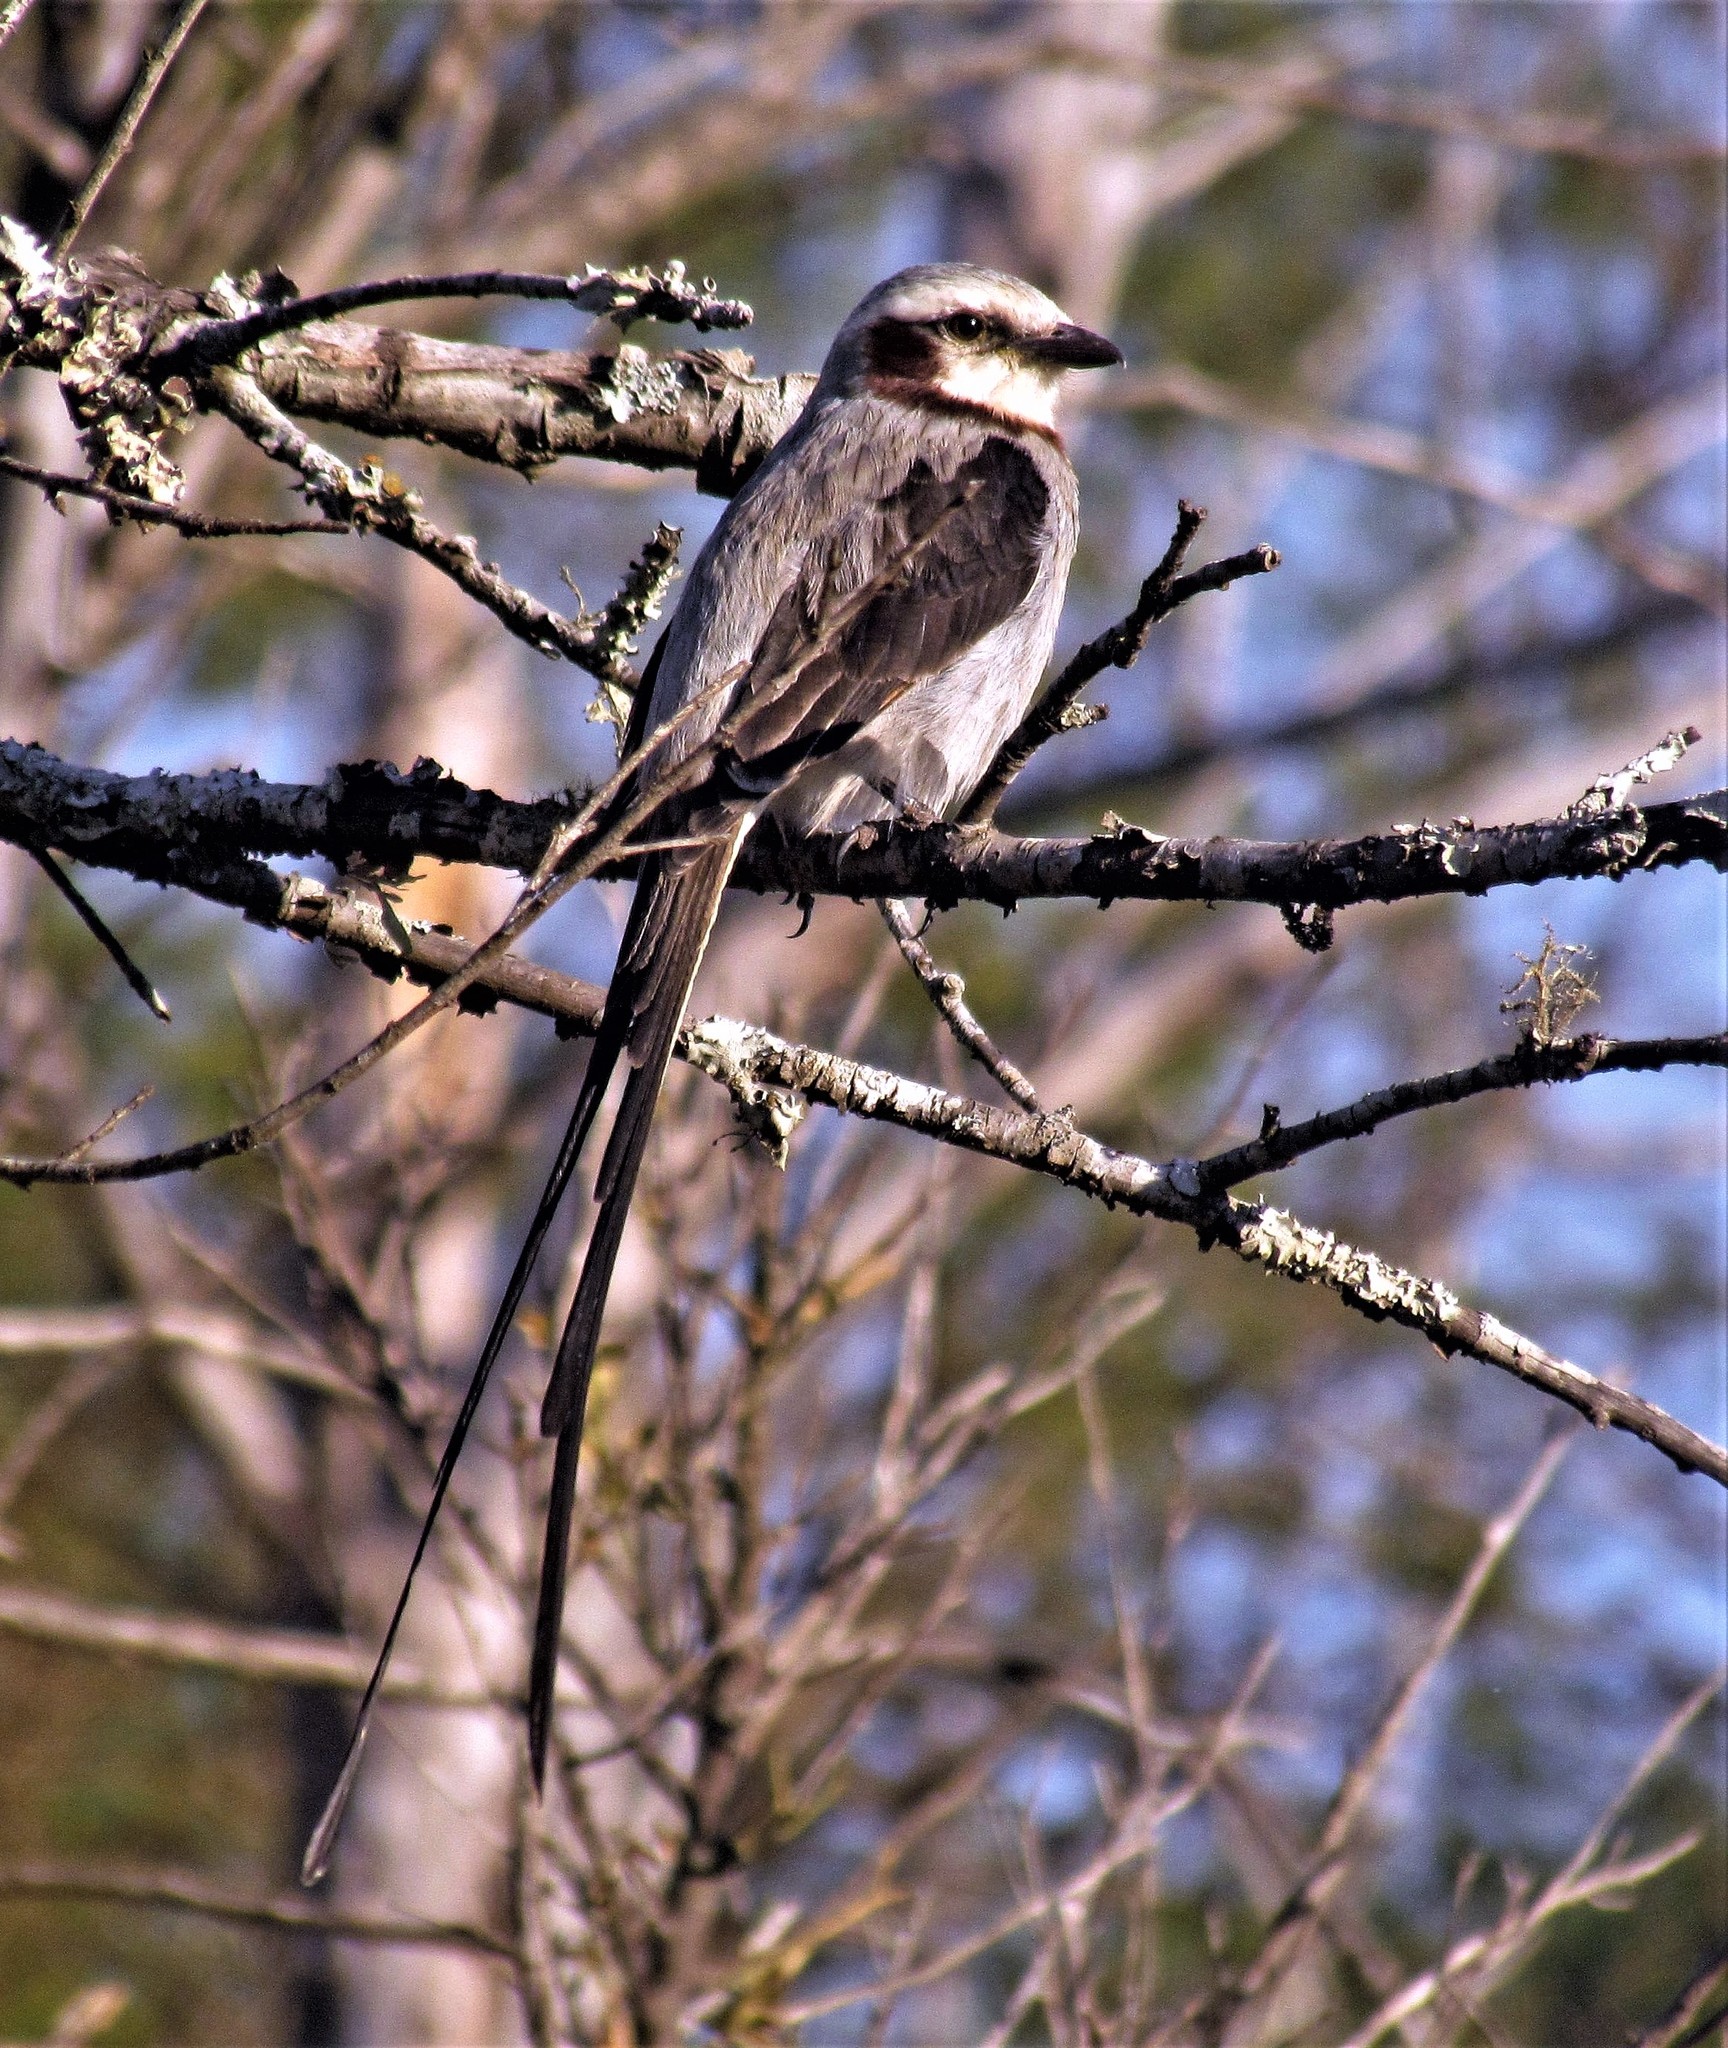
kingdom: Animalia
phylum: Chordata
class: Aves
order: Passeriformes
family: Tyrannidae
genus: Gubernetes
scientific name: Gubernetes yetapa
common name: Streamer-tailed tyrant
